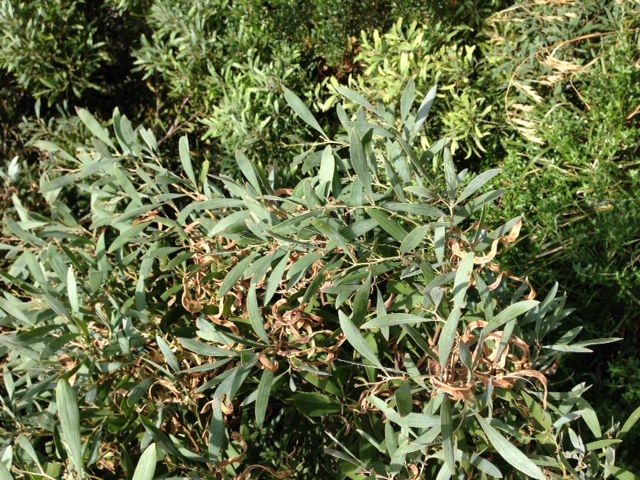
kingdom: Plantae
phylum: Tracheophyta
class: Magnoliopsida
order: Fabales
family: Fabaceae
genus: Acacia
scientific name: Acacia melanoxylon
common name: Blackwood
